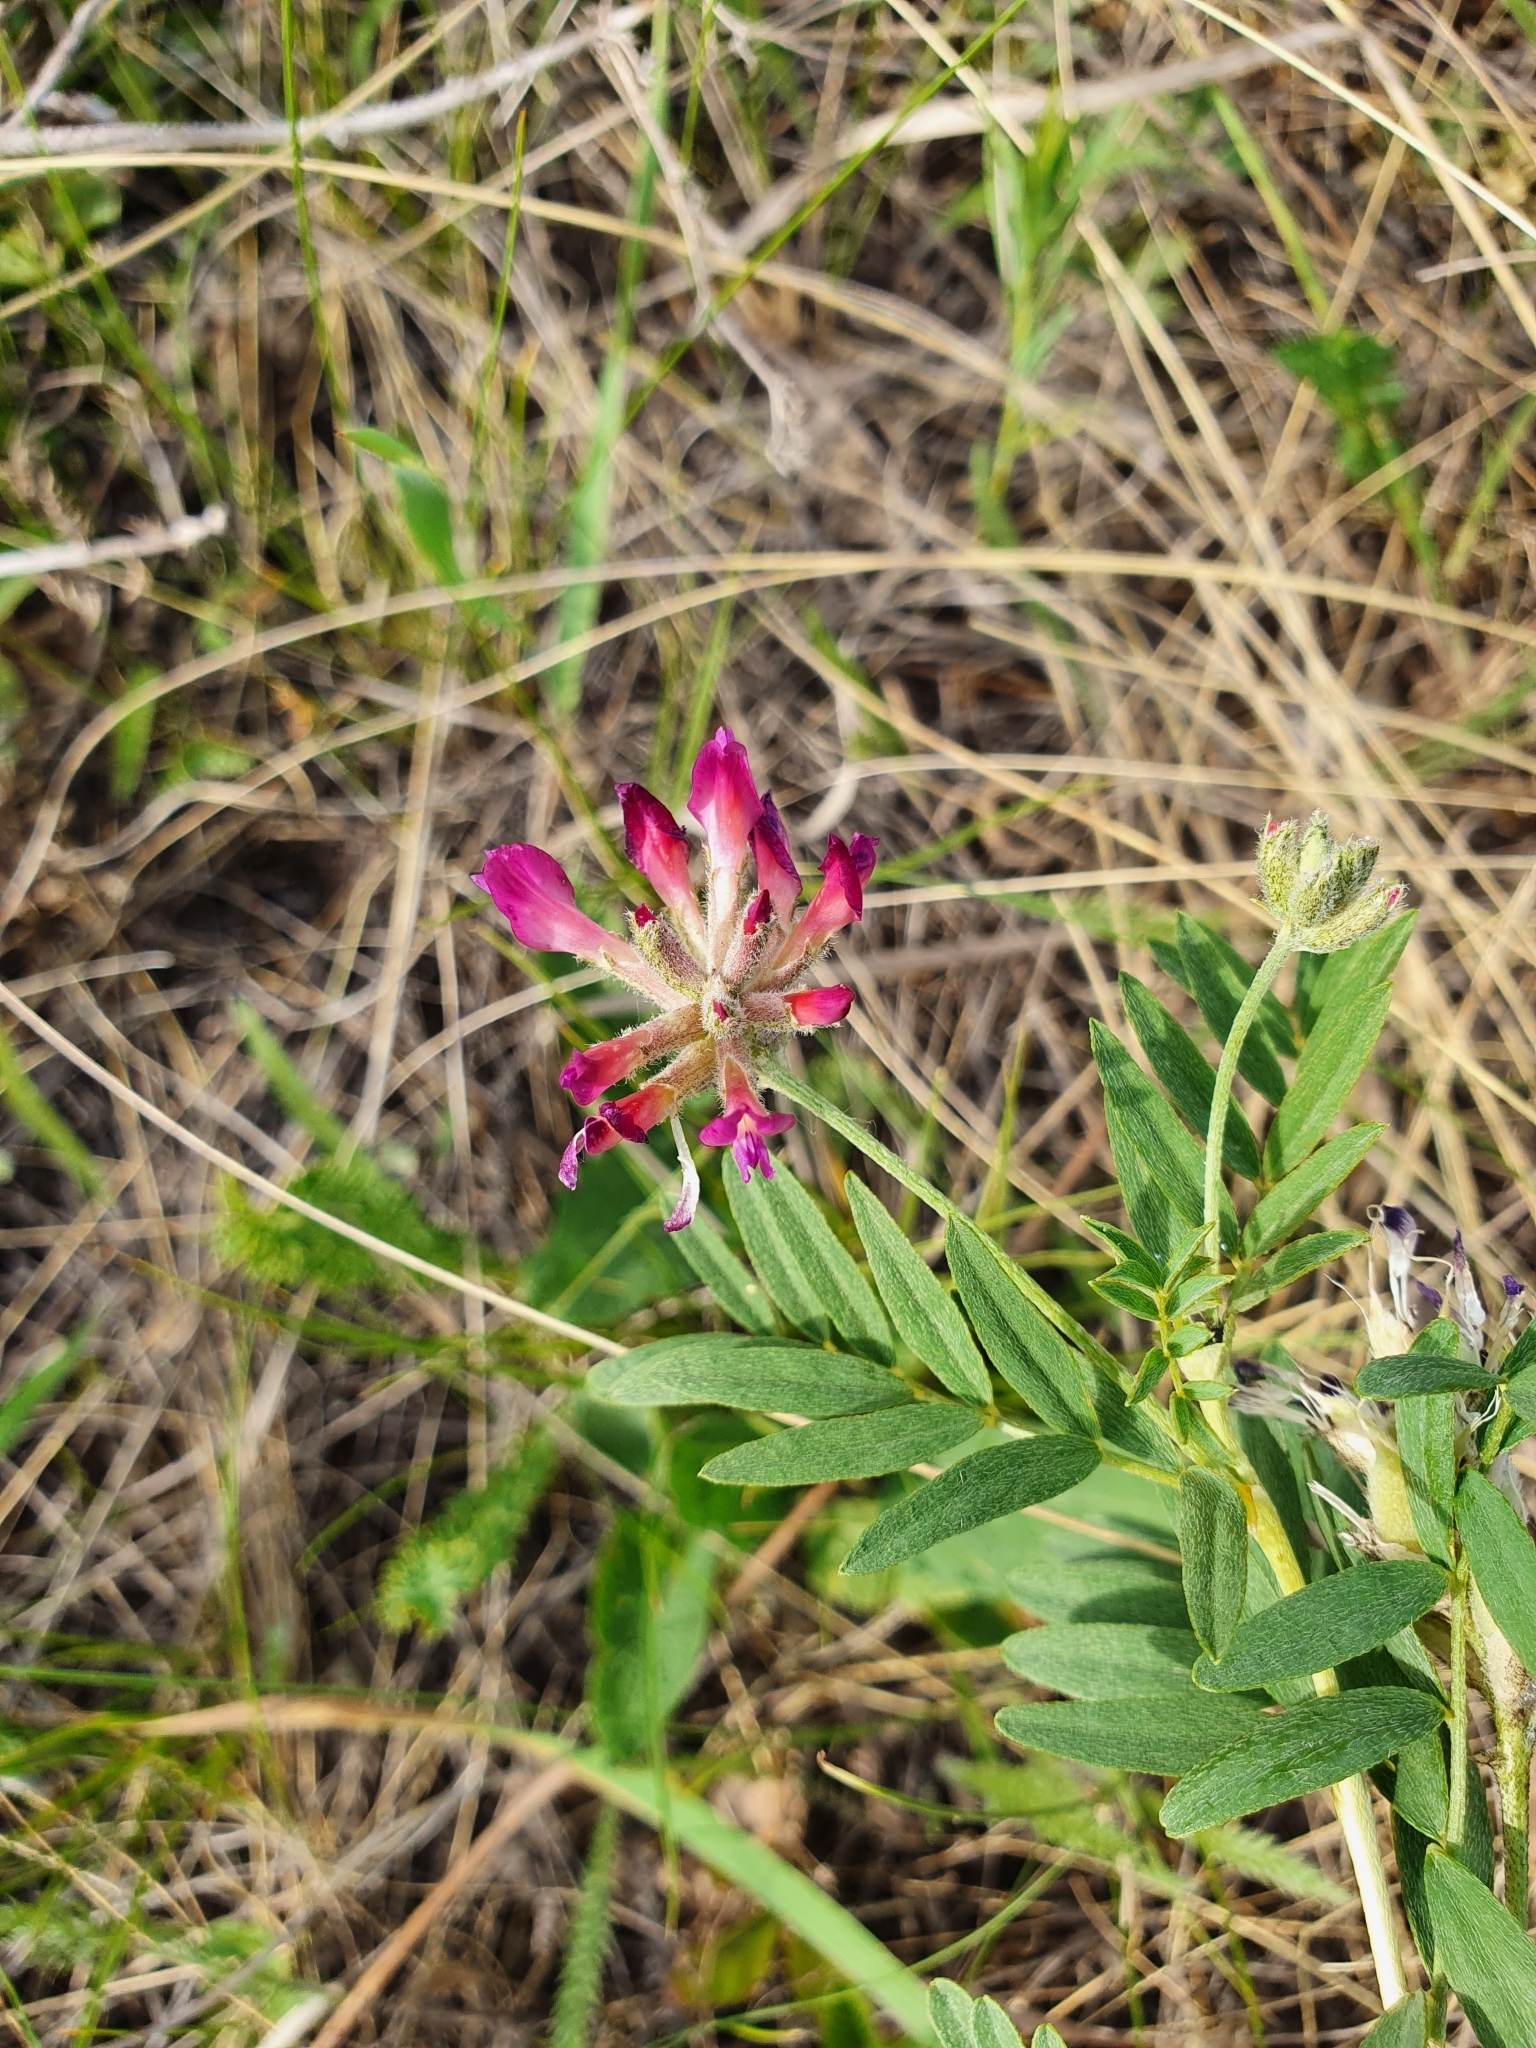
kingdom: Plantae
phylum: Tracheophyta
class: Magnoliopsida
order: Fabales
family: Fabaceae
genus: Astragalus
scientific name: Astragalus cornutus
